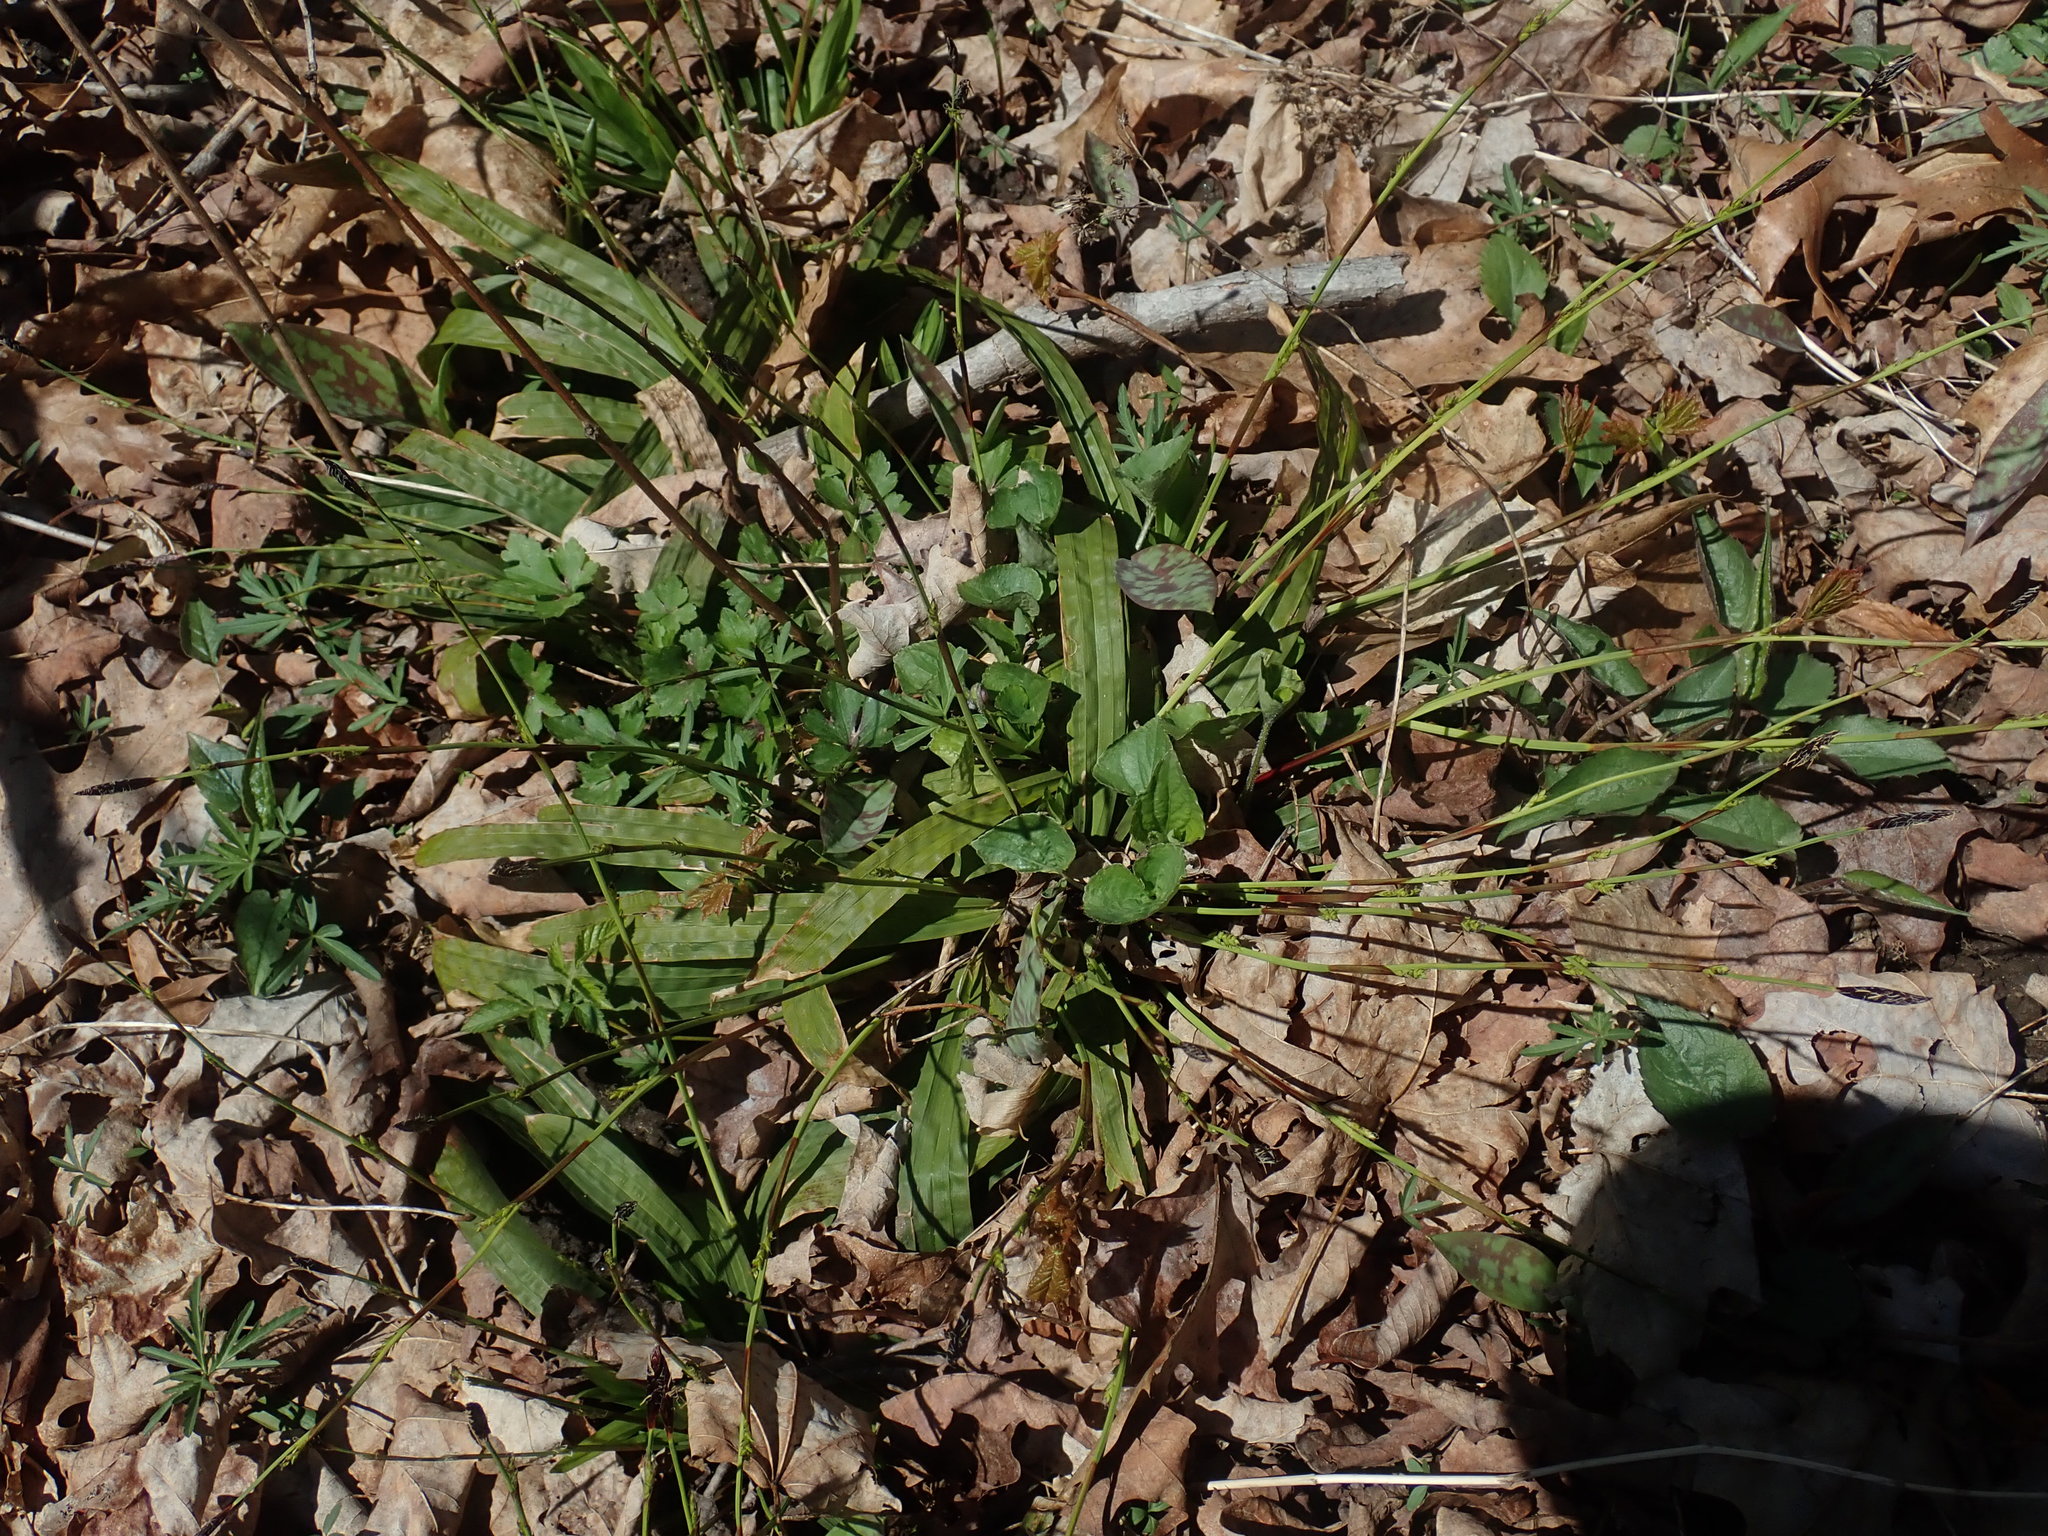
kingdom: Plantae
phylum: Tracheophyta
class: Liliopsida
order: Poales
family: Cyperaceae
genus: Carex
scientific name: Carex plantaginea
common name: Plantain-leaved sedge
